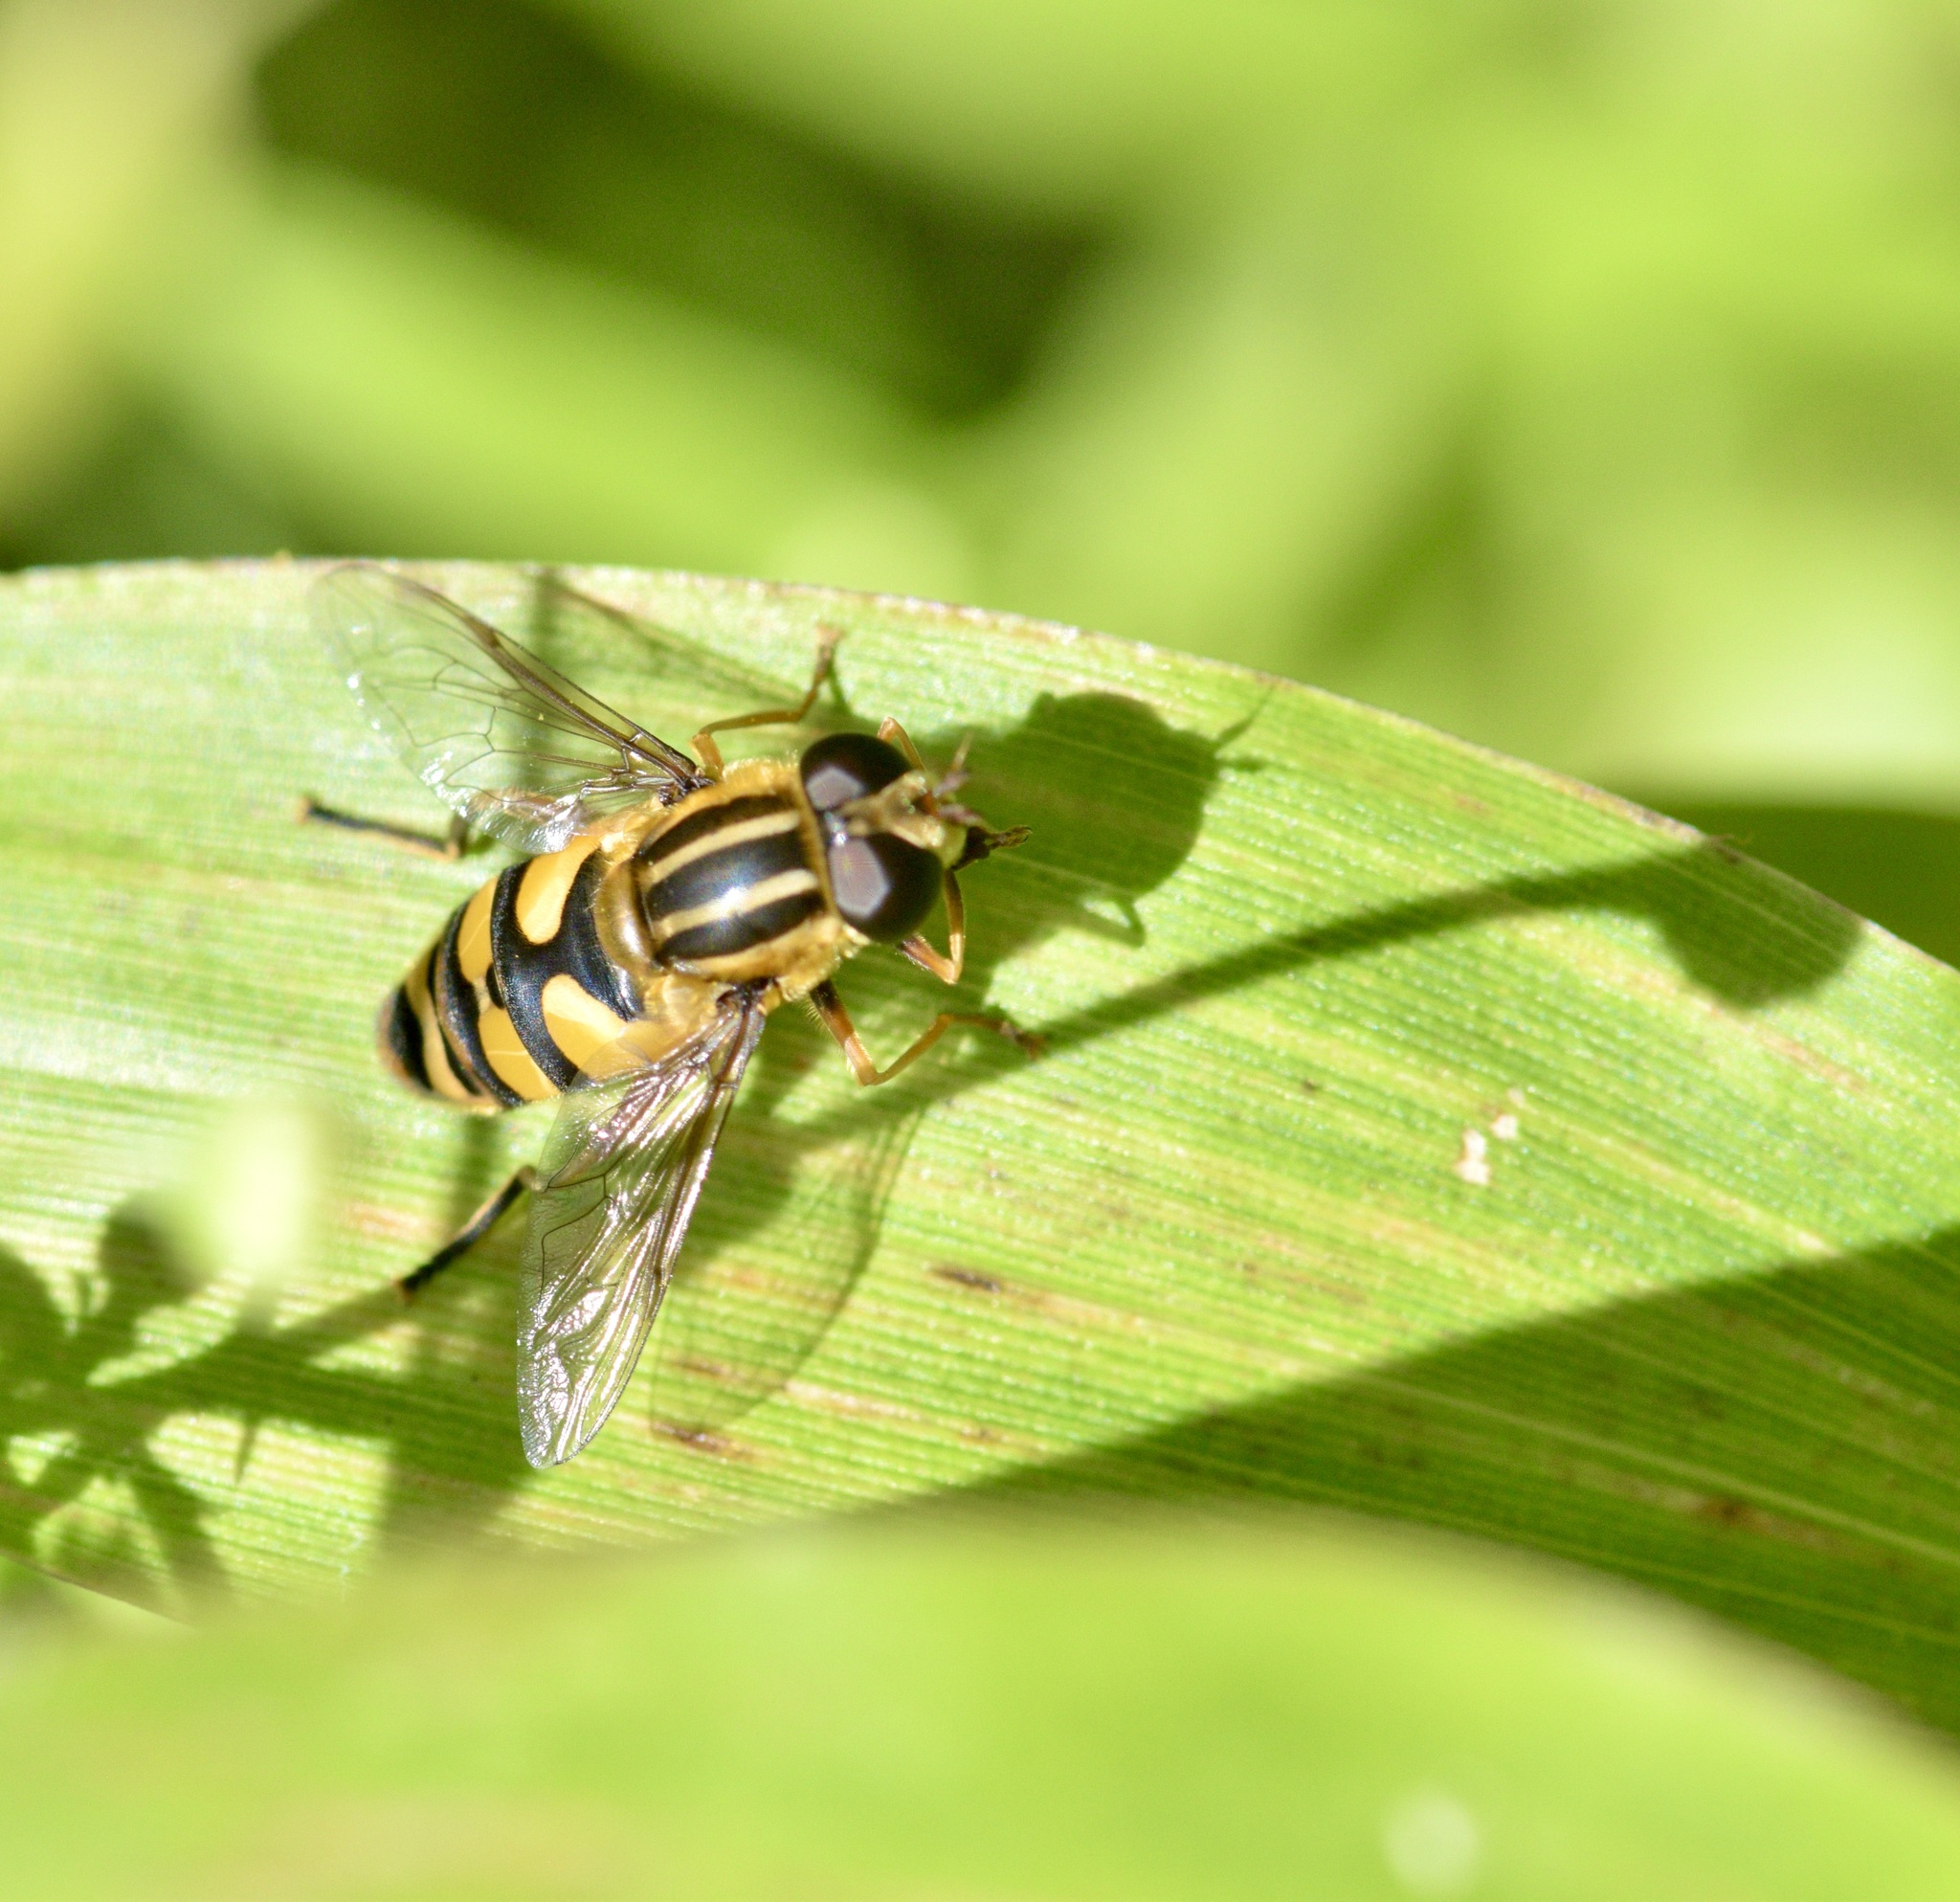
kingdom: Animalia
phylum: Arthropoda
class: Insecta
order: Diptera
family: Syrphidae
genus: Helophilus
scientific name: Helophilus fasciatus
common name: Narrow-headed marsh fly
